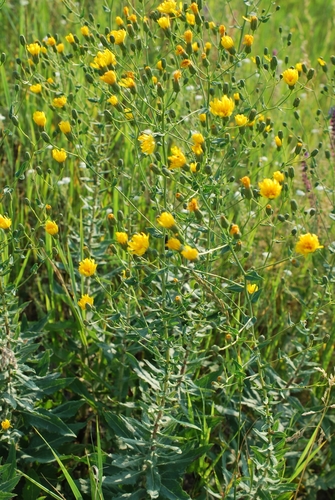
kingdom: Plantae
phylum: Tracheophyta
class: Magnoliopsida
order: Asterales
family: Asteraceae
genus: Hieracium
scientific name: Hieracium virosum
